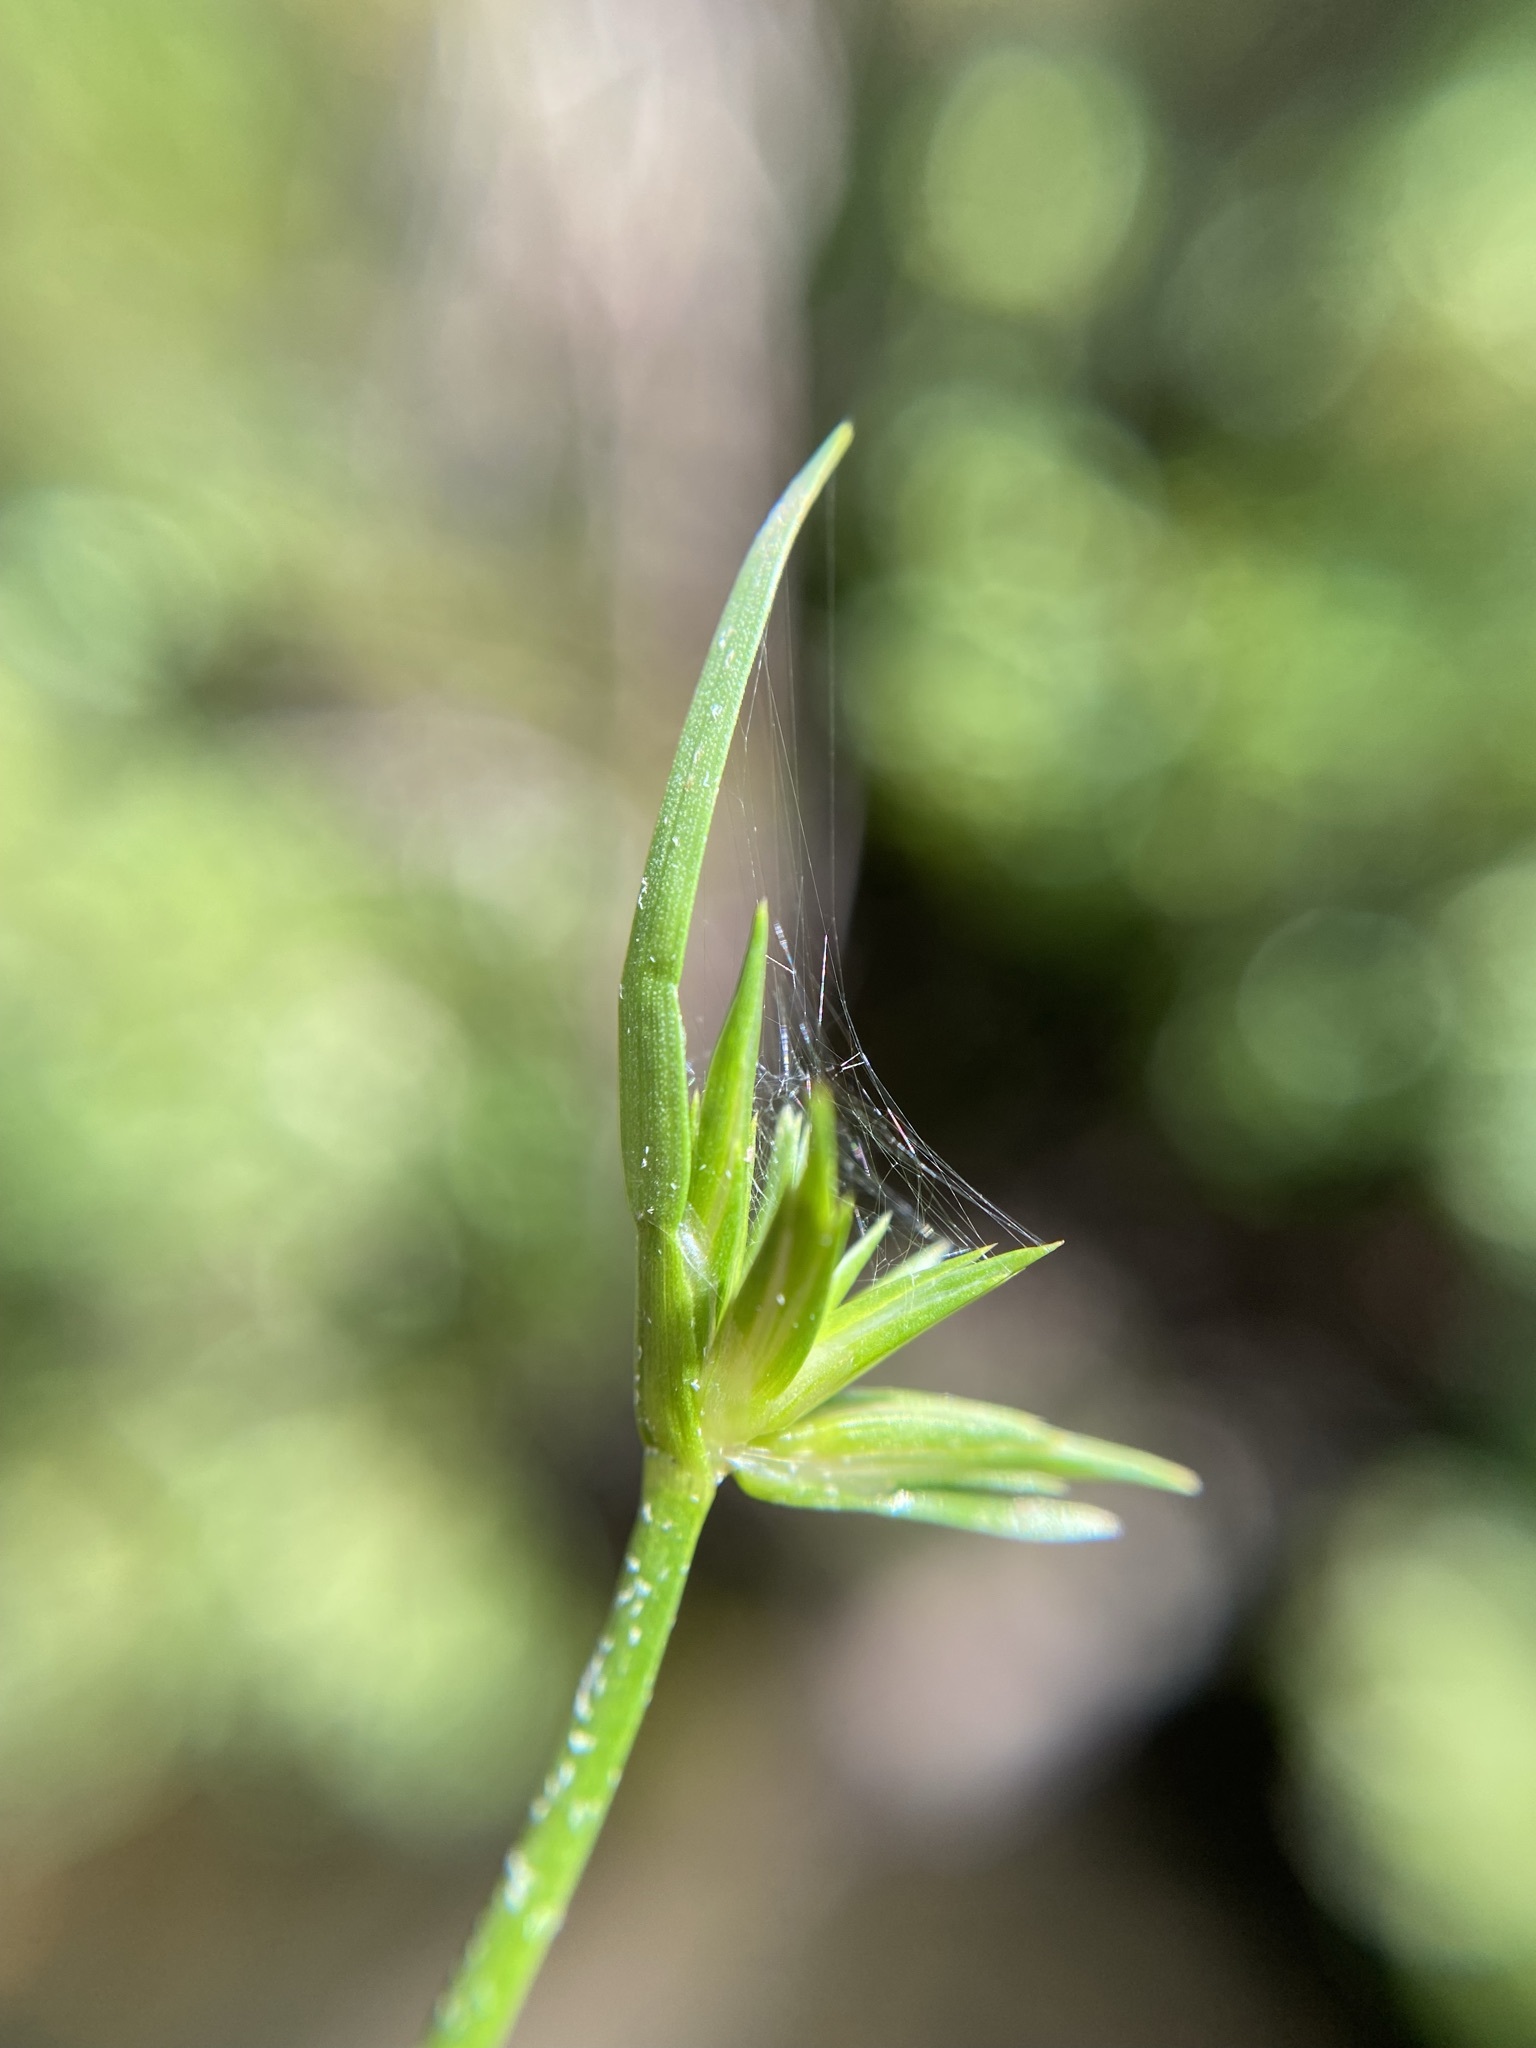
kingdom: Plantae
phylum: Tracheophyta
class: Liliopsida
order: Poales
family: Juncaceae
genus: Juncus
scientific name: Juncus repens
